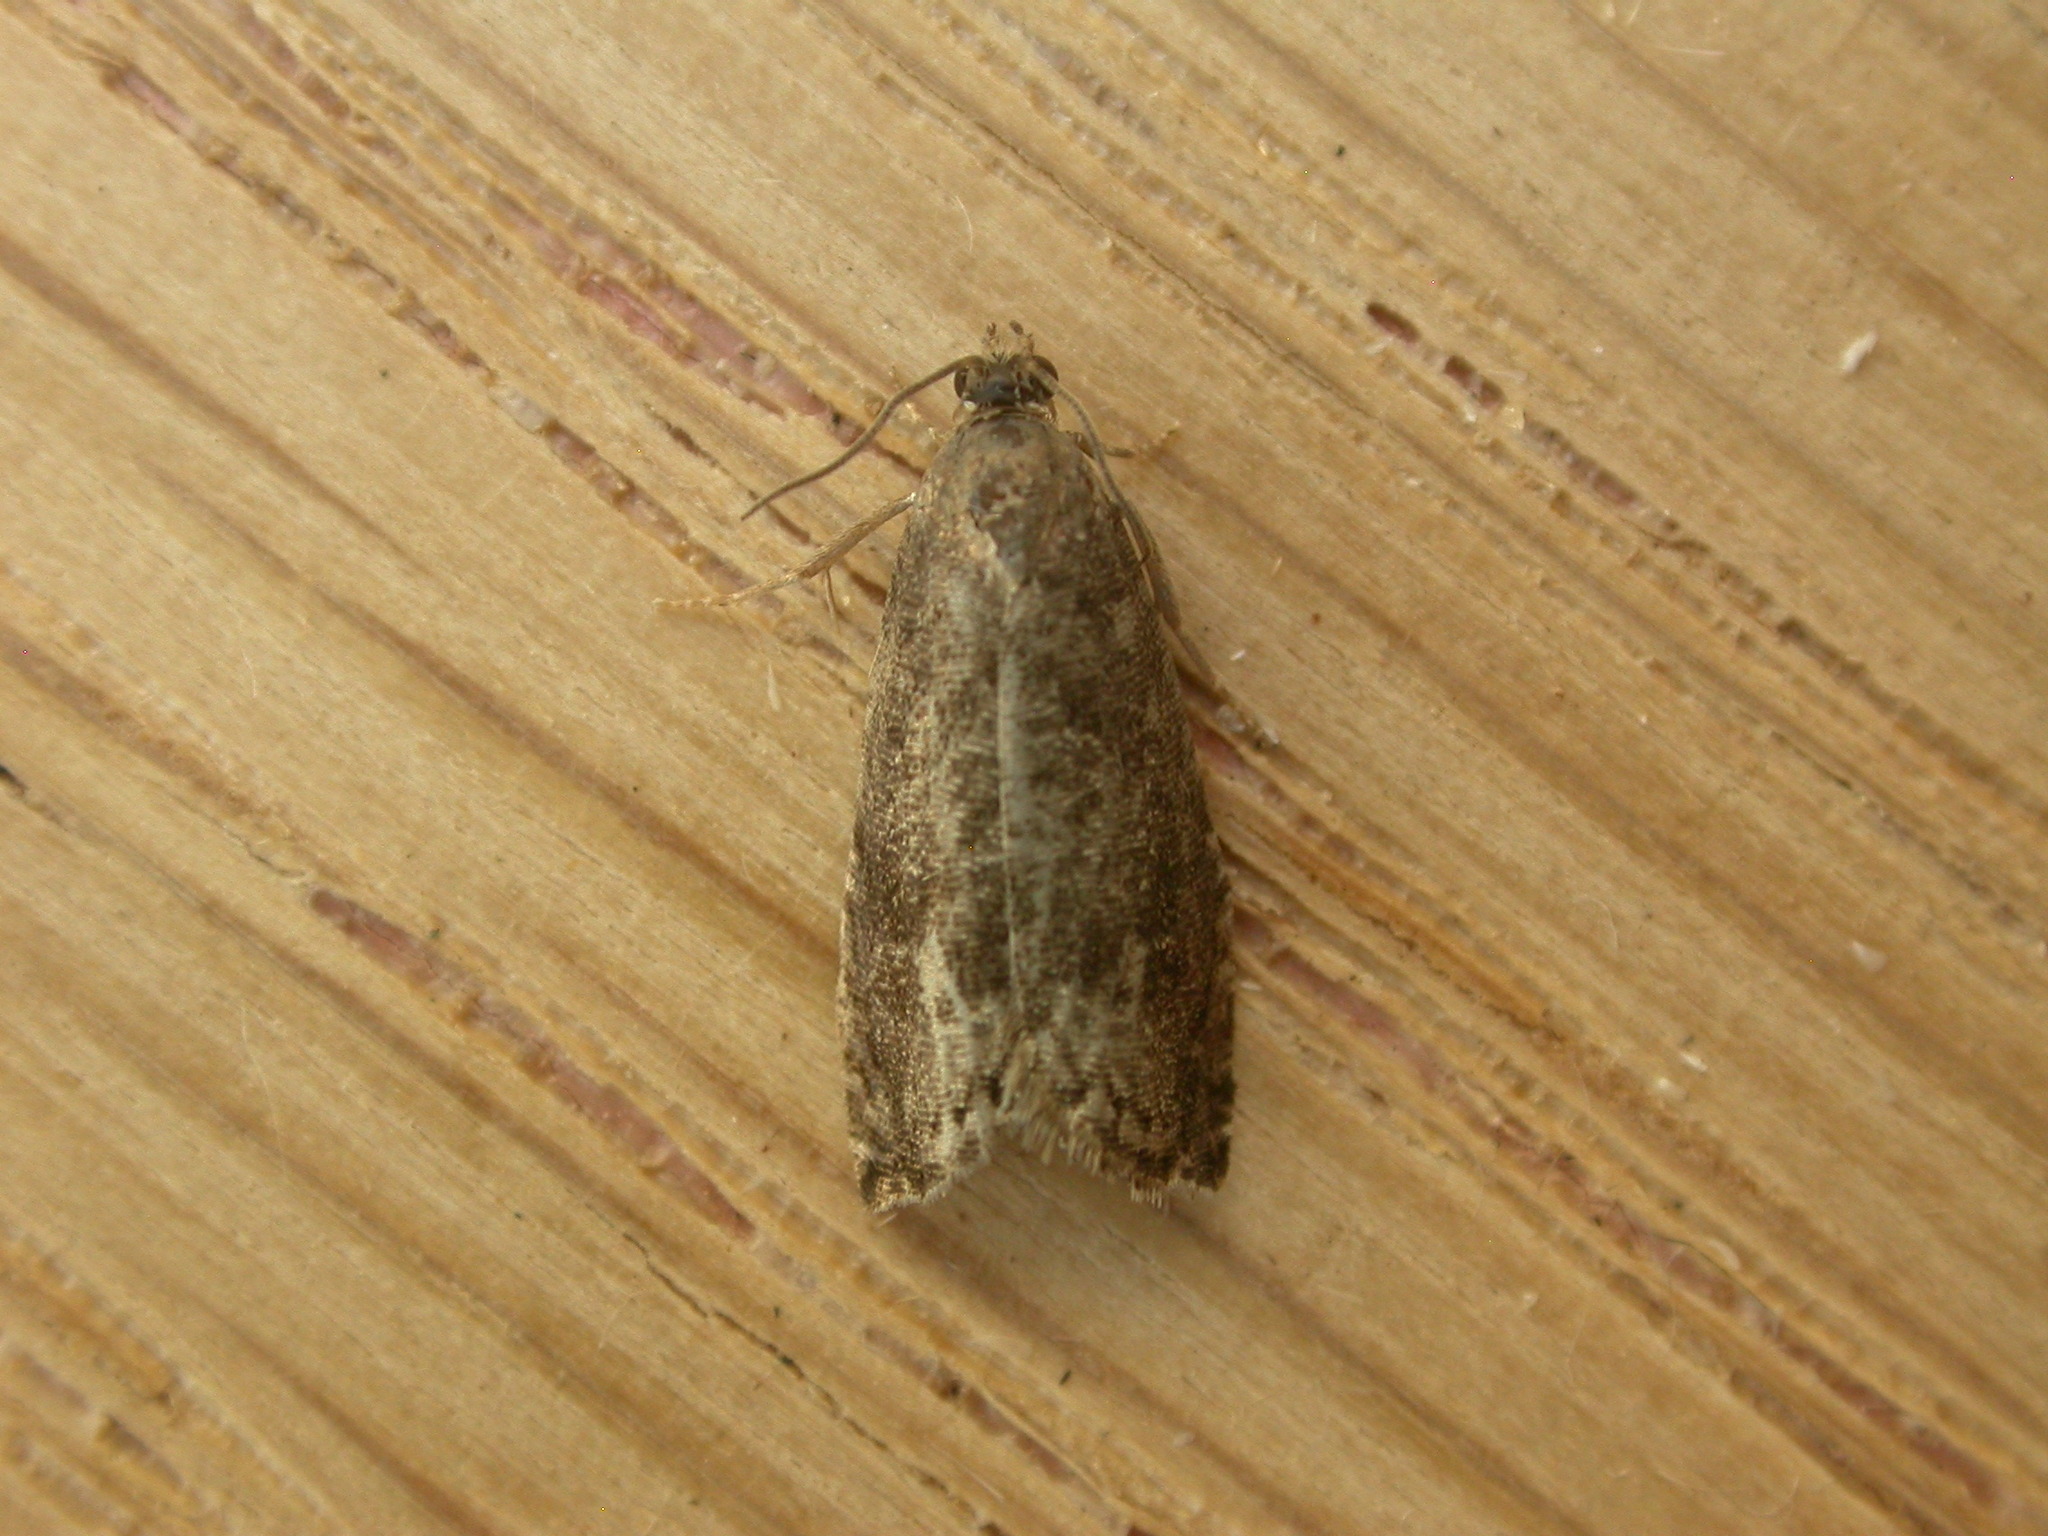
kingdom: Animalia
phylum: Arthropoda
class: Insecta
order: Lepidoptera
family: Noctuidae
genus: Aspila
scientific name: Aspila
